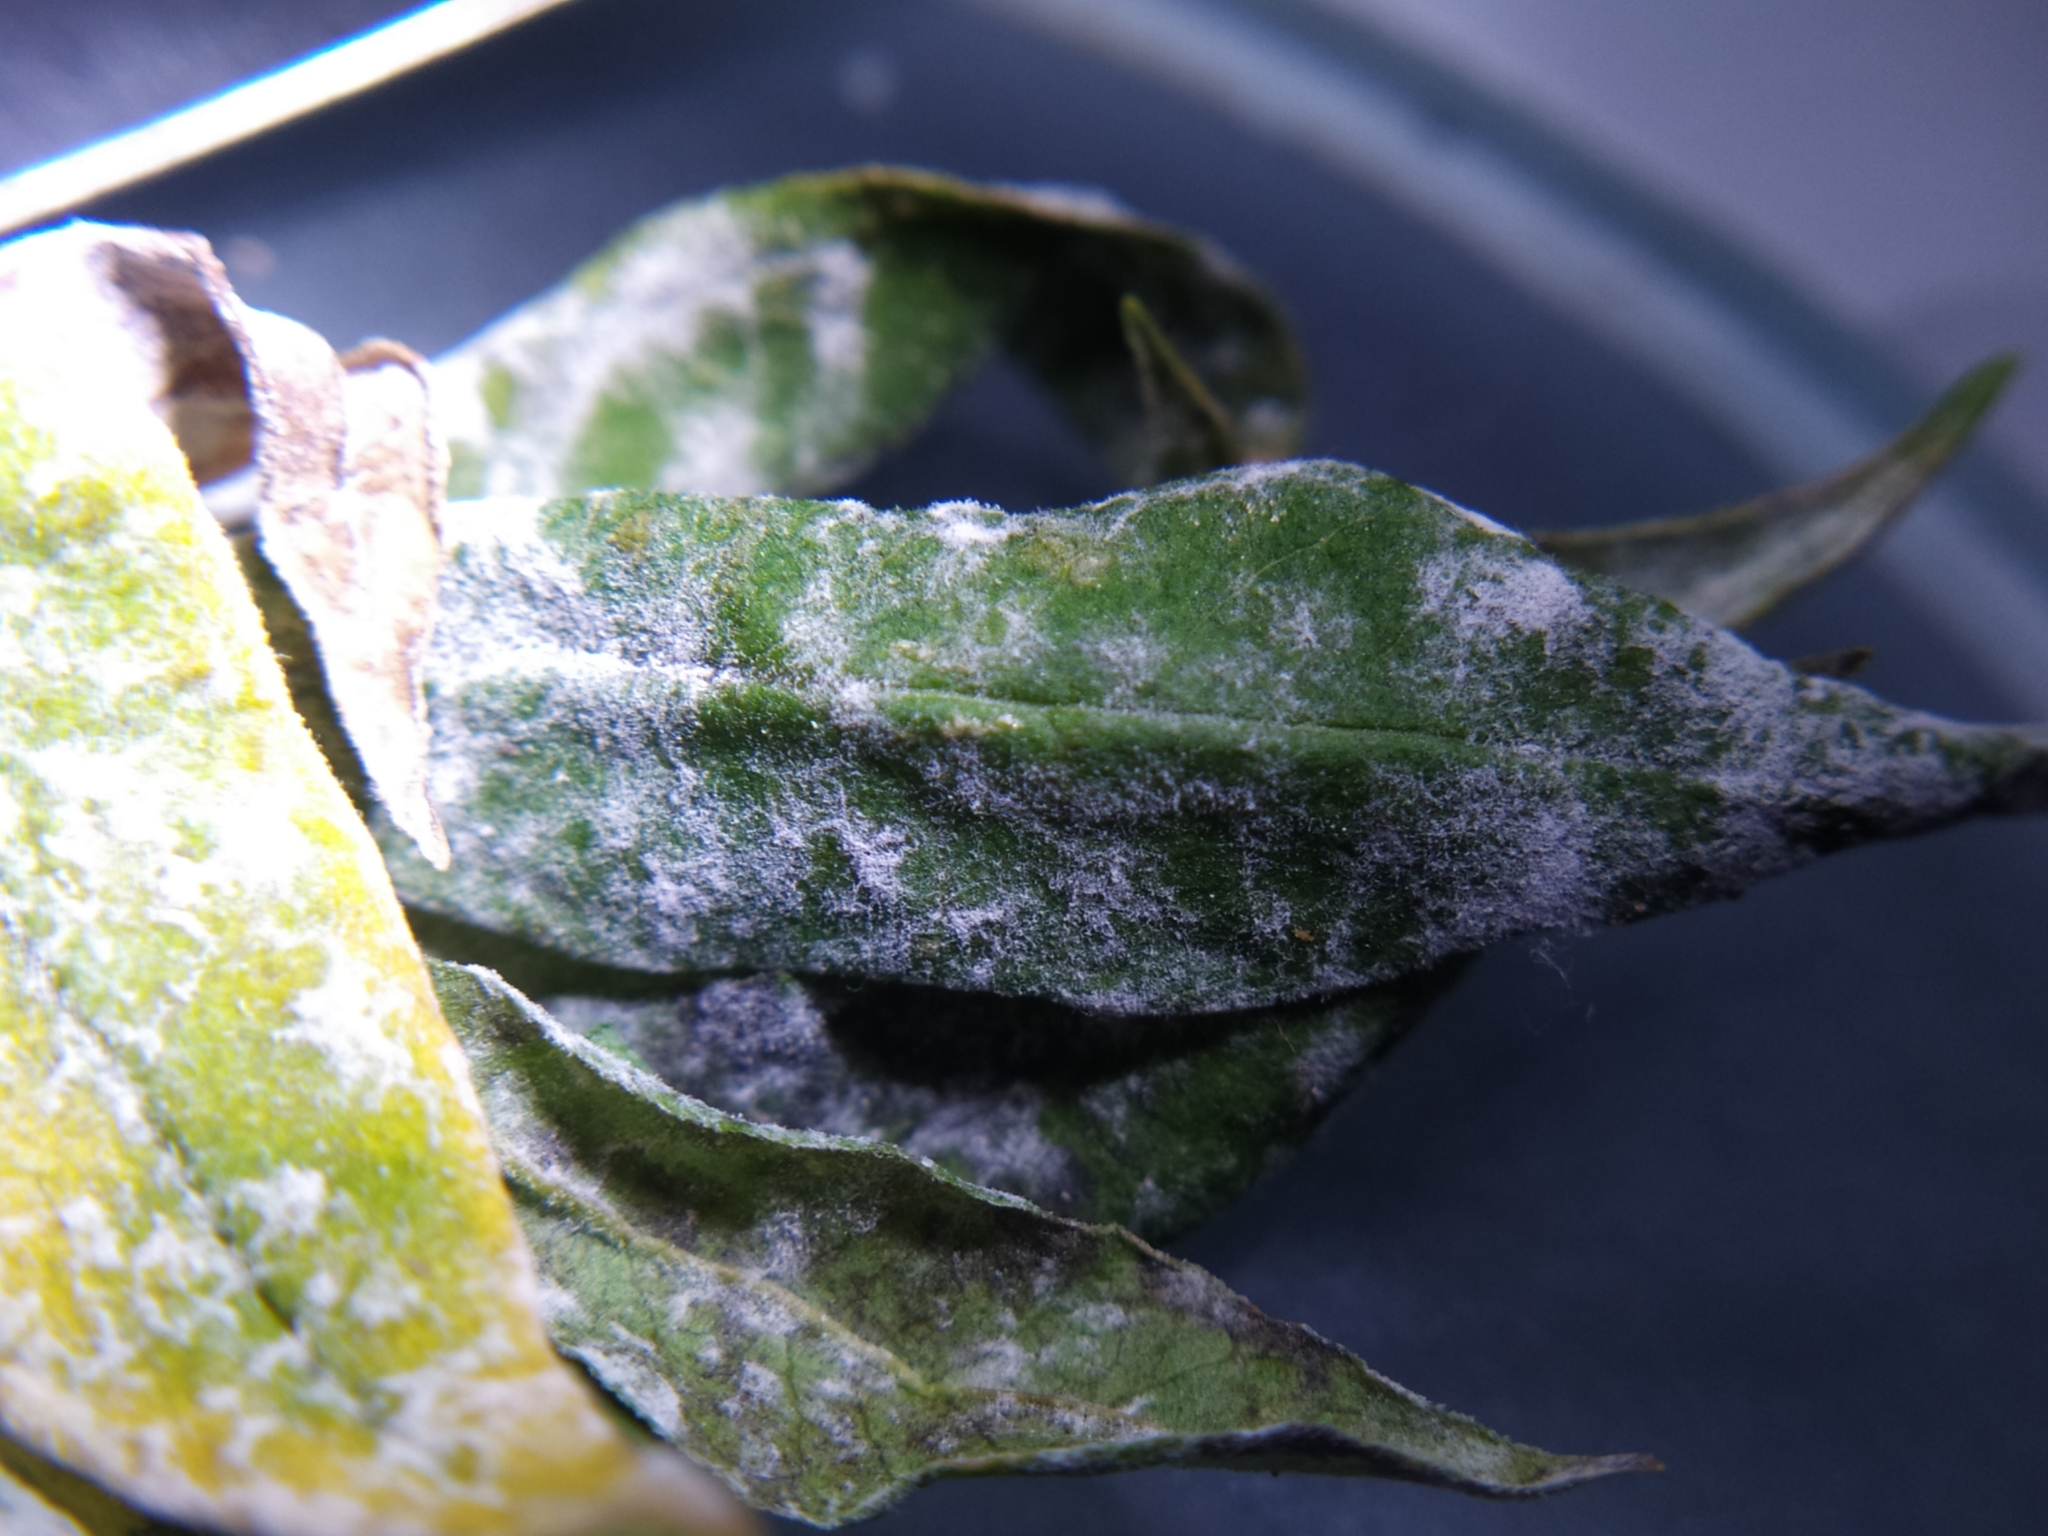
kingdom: Fungi
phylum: Ascomycota
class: Leotiomycetes
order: Helotiales
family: Erysiphaceae
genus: Golovinomyces
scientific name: Golovinomyces magnicellulatus
